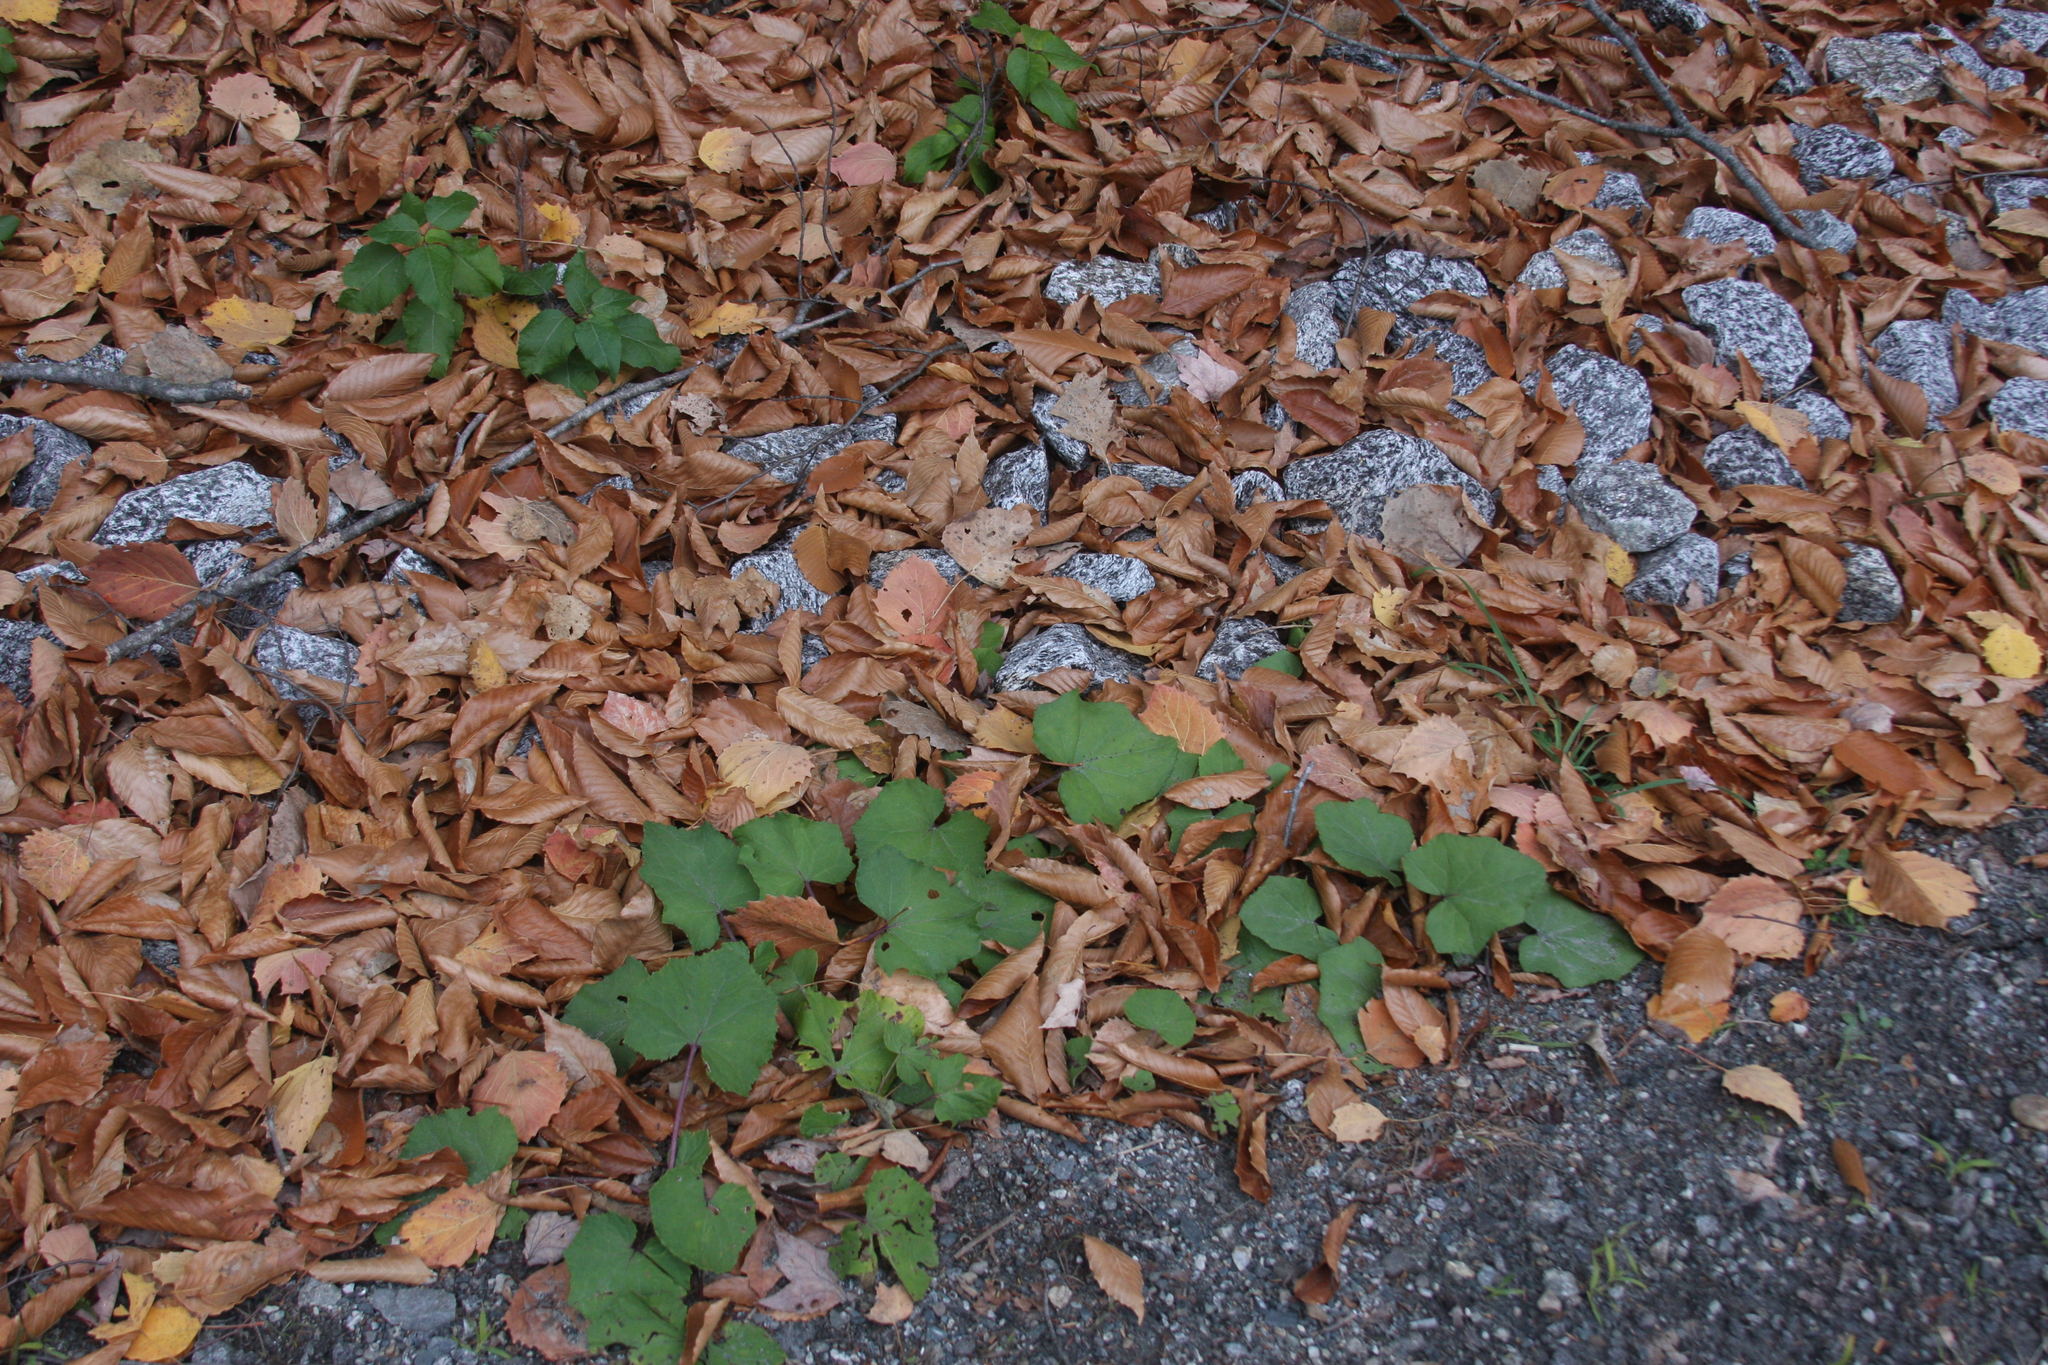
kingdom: Plantae
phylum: Tracheophyta
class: Magnoliopsida
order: Asterales
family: Asteraceae
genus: Tussilago
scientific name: Tussilago farfara
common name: Coltsfoot
